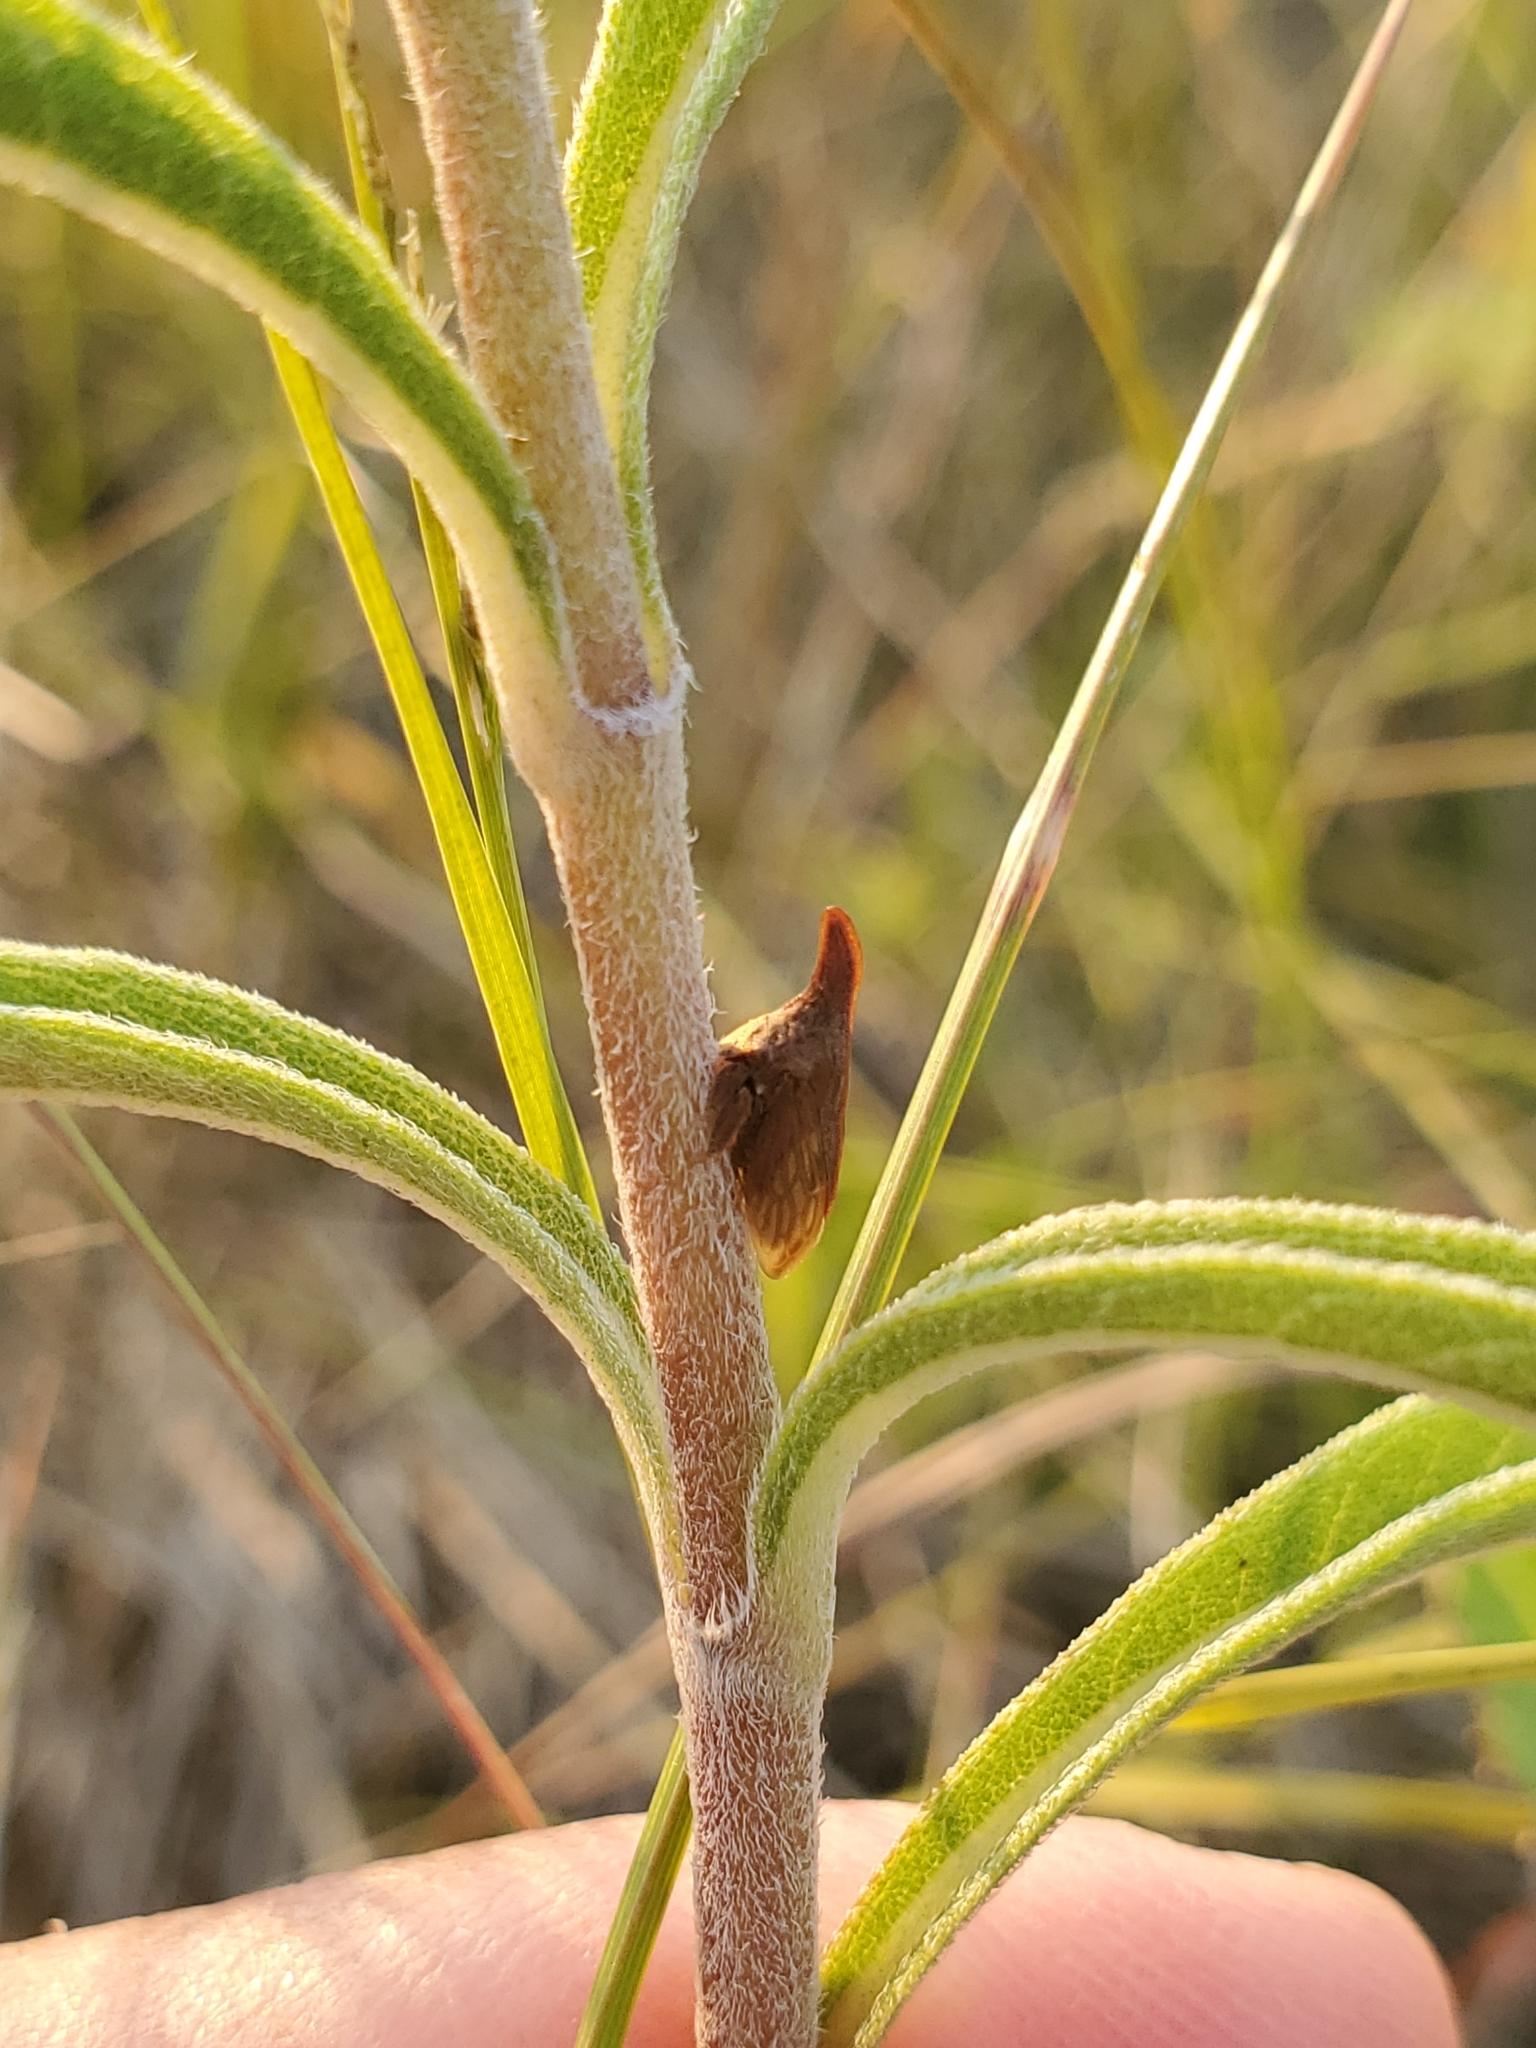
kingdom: Animalia
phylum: Arthropoda
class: Insecta
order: Hemiptera
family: Membracidae
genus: Enchenopa
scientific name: Enchenopa latipes
